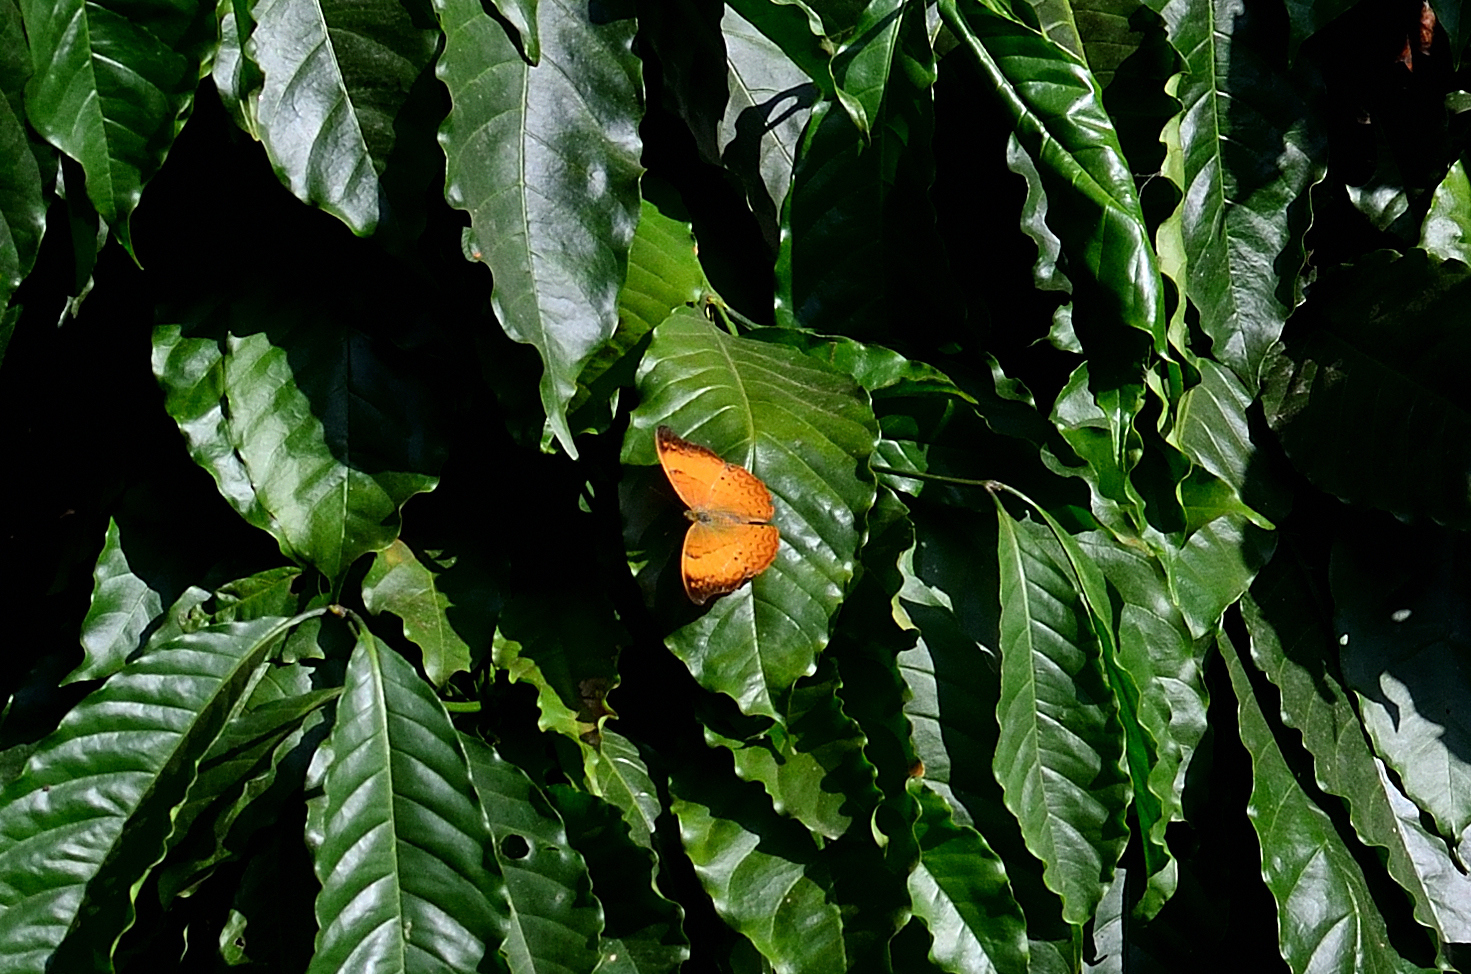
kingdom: Animalia
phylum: Arthropoda
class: Insecta
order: Lepidoptera
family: Nymphalidae
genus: Cirrochroa
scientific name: Cirrochroa thais
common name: Tamil yeoman
